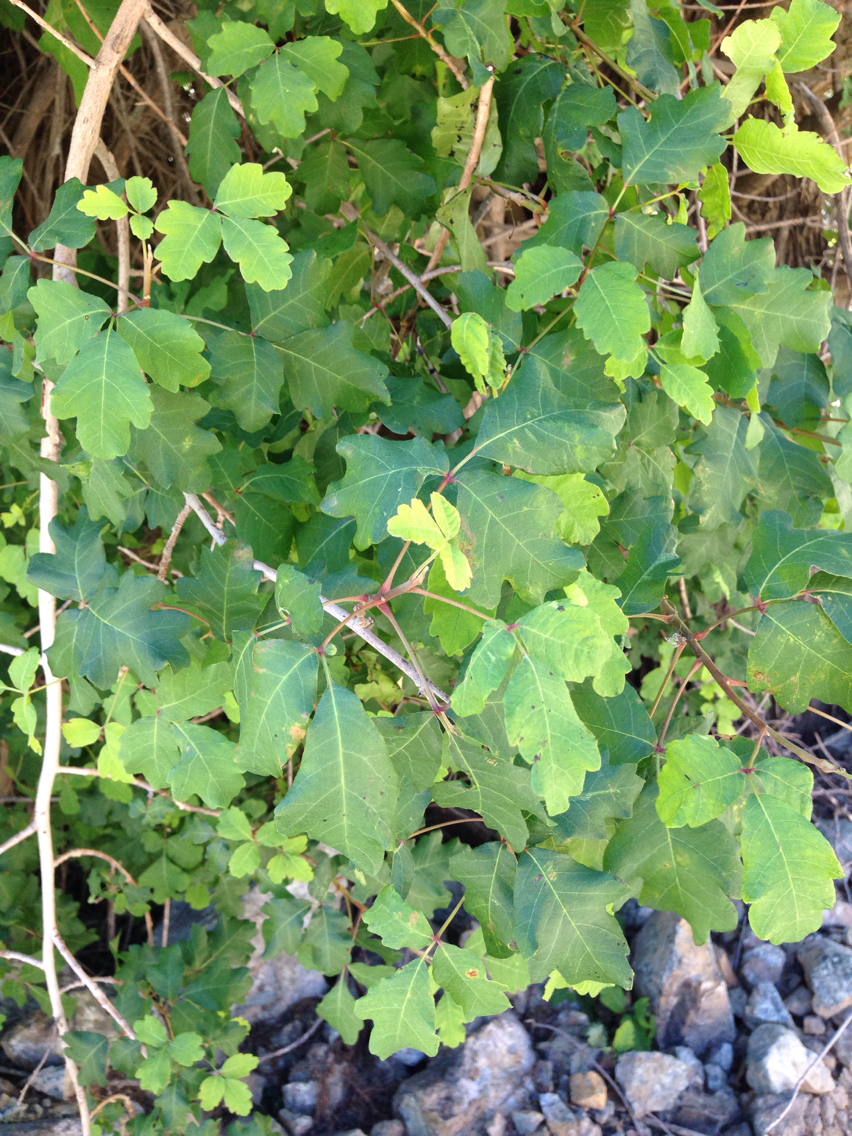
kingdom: Plantae
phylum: Tracheophyta
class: Magnoliopsida
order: Sapindales
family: Anacardiaceae
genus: Toxicodendron
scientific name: Toxicodendron diversilobum
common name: Pacific poison-oak
